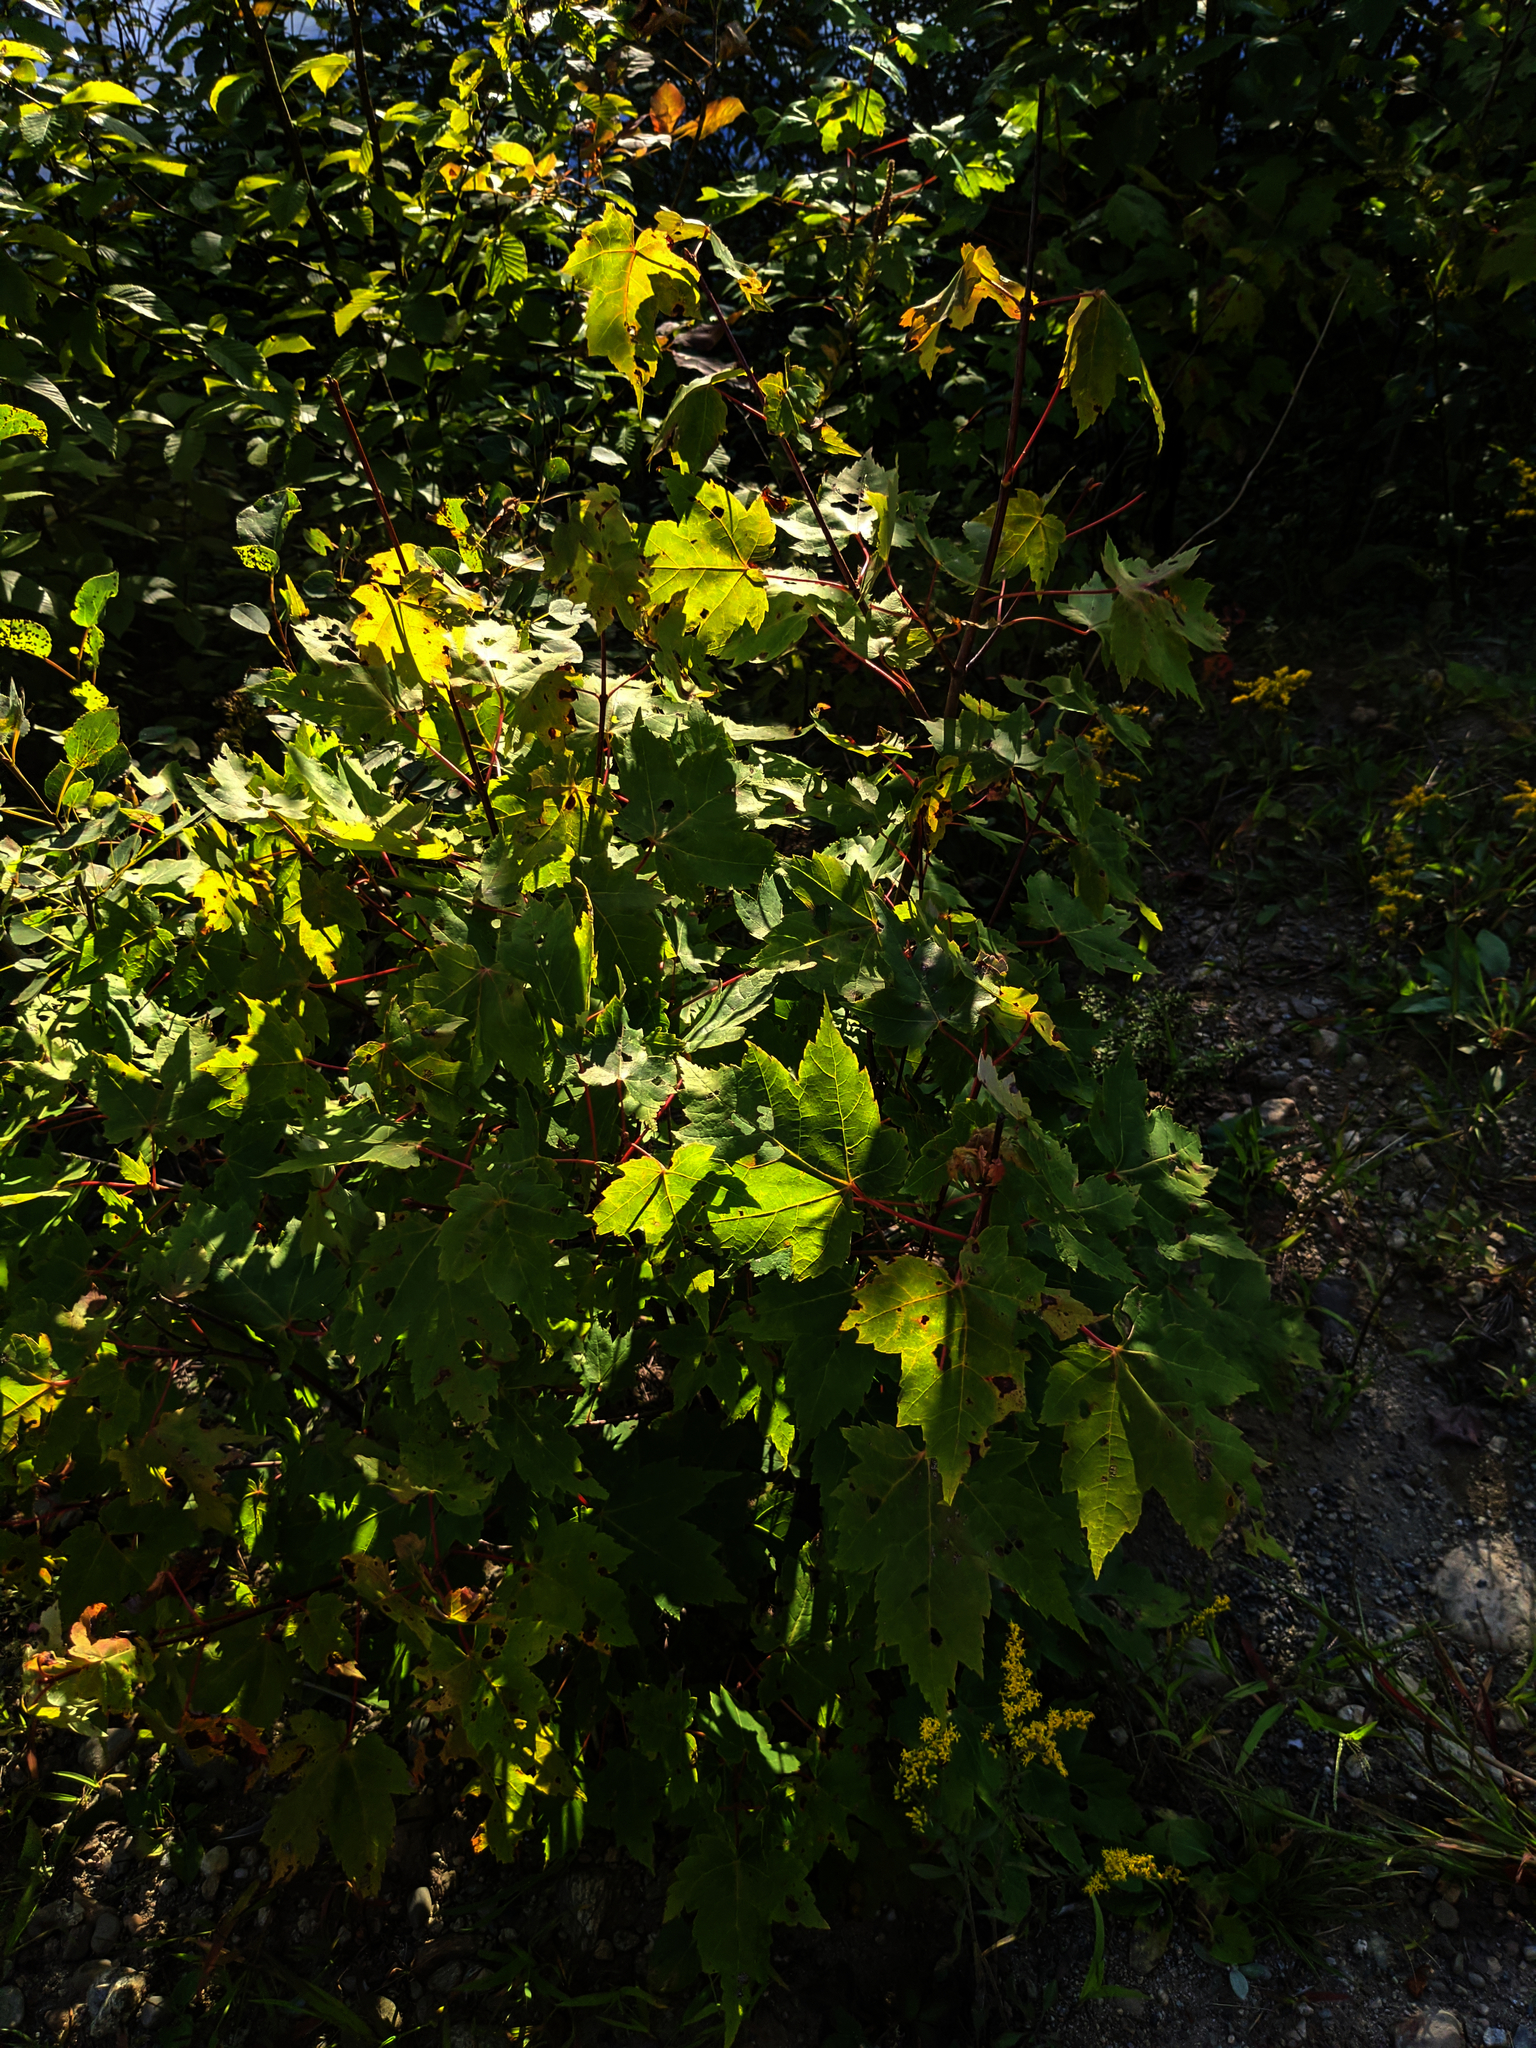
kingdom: Plantae
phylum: Tracheophyta
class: Magnoliopsida
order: Sapindales
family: Sapindaceae
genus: Acer
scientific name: Acer rubrum
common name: Red maple
